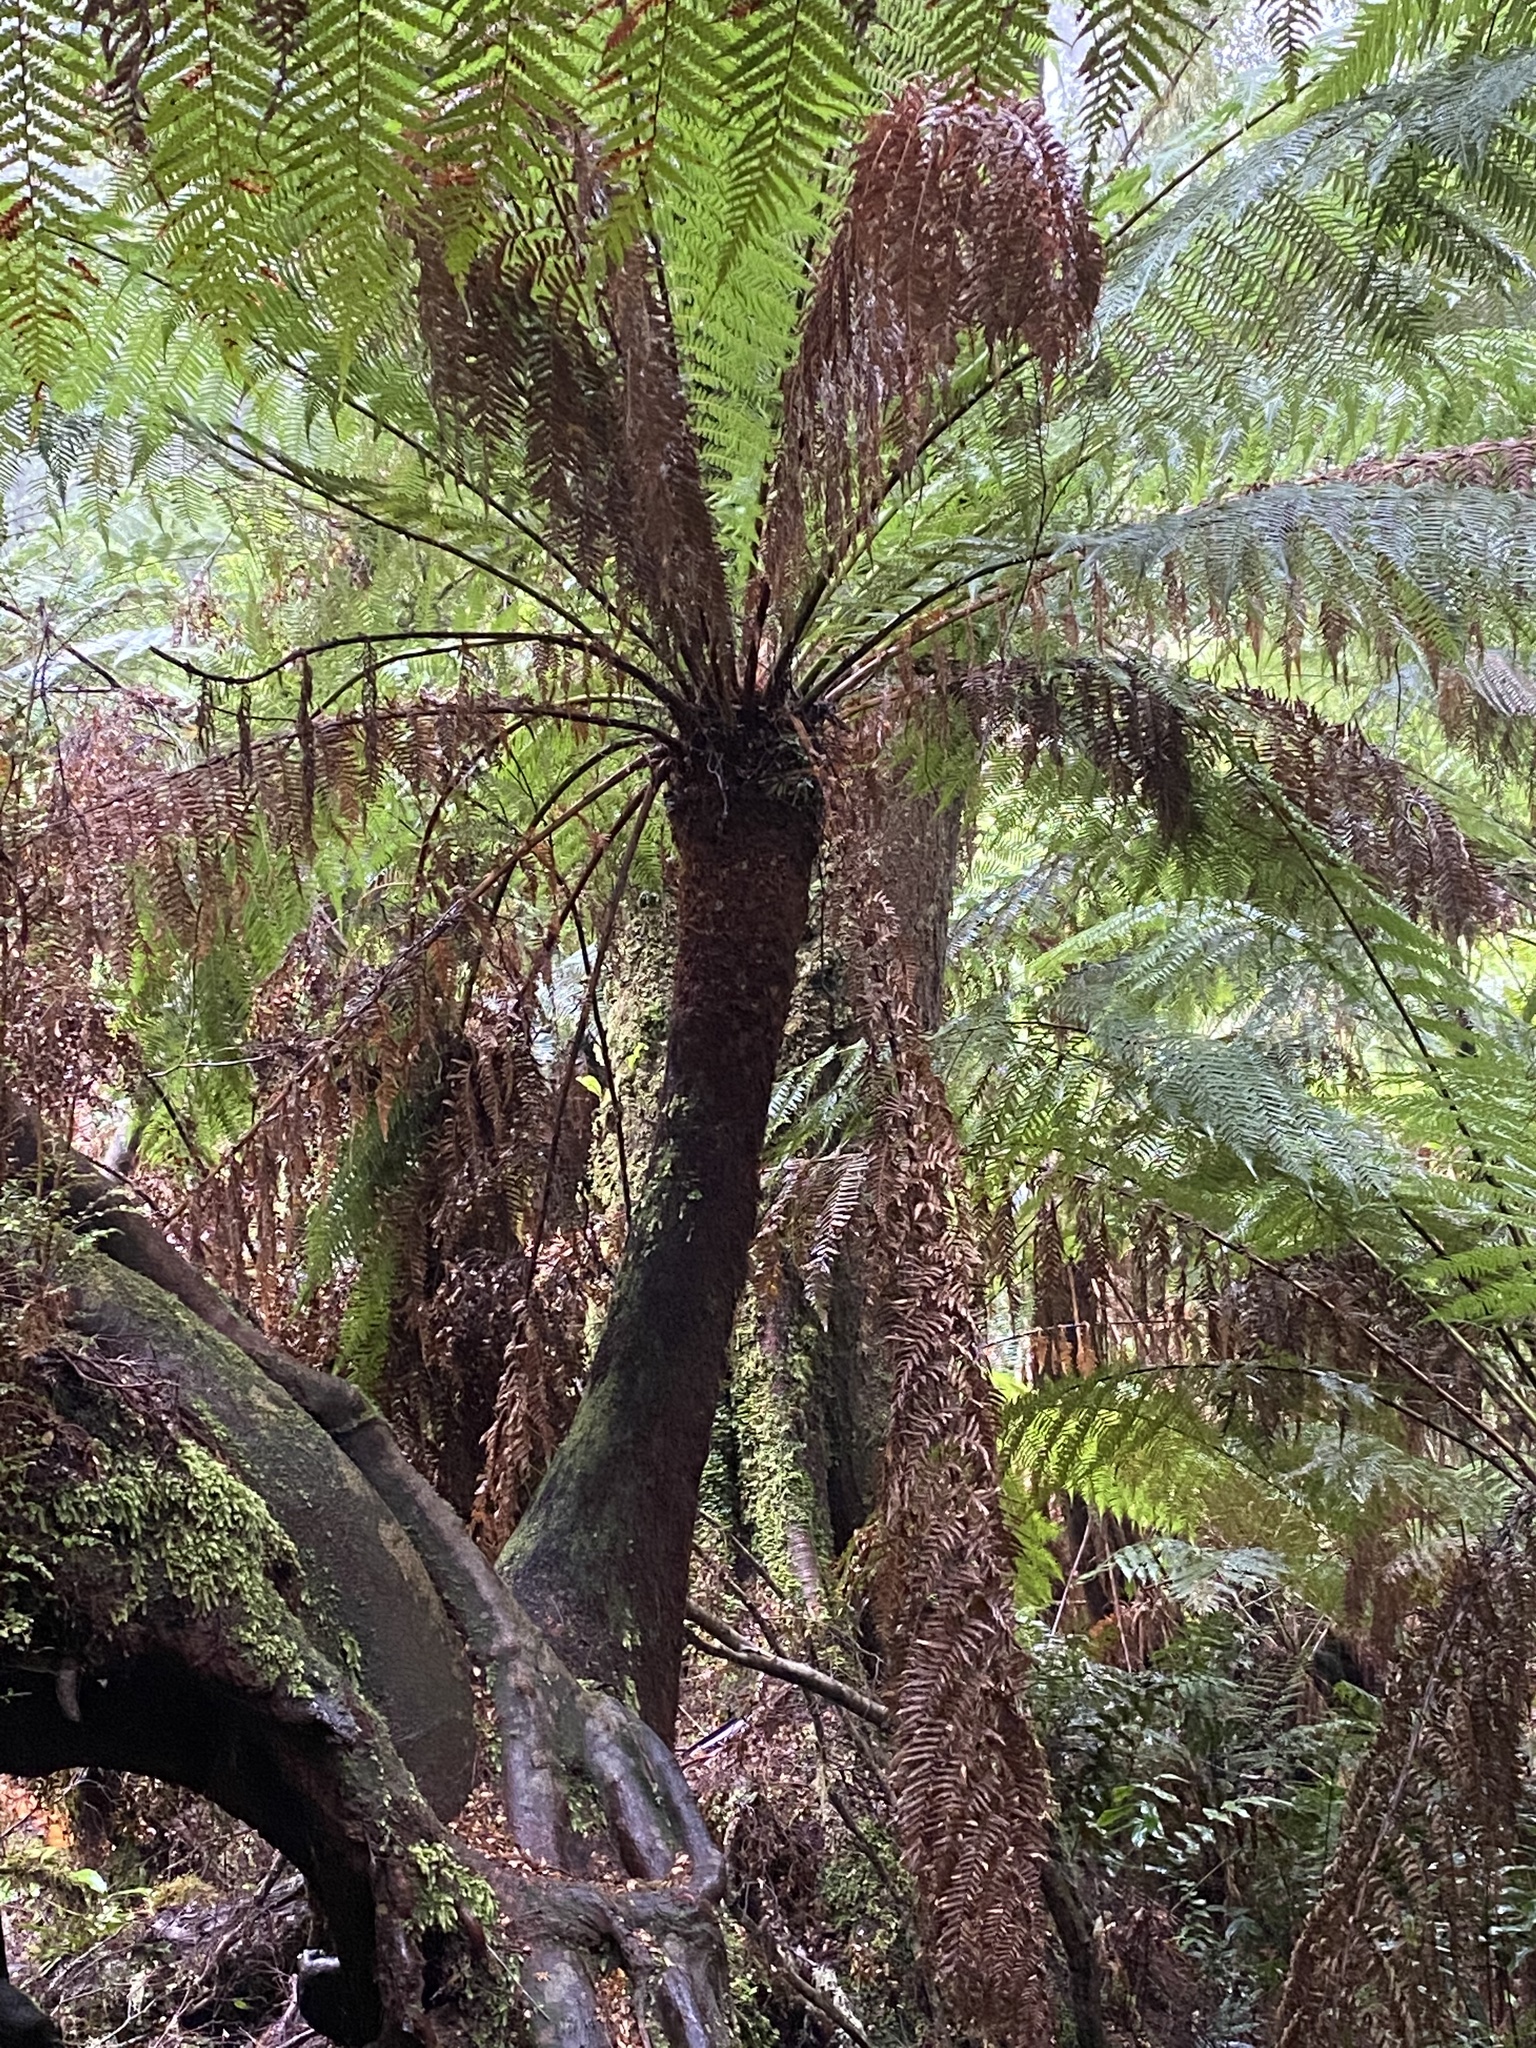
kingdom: Plantae
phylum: Tracheophyta
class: Polypodiopsida
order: Cyatheales
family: Dicksoniaceae
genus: Dicksonia
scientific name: Dicksonia antarctica
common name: Australian treefern
